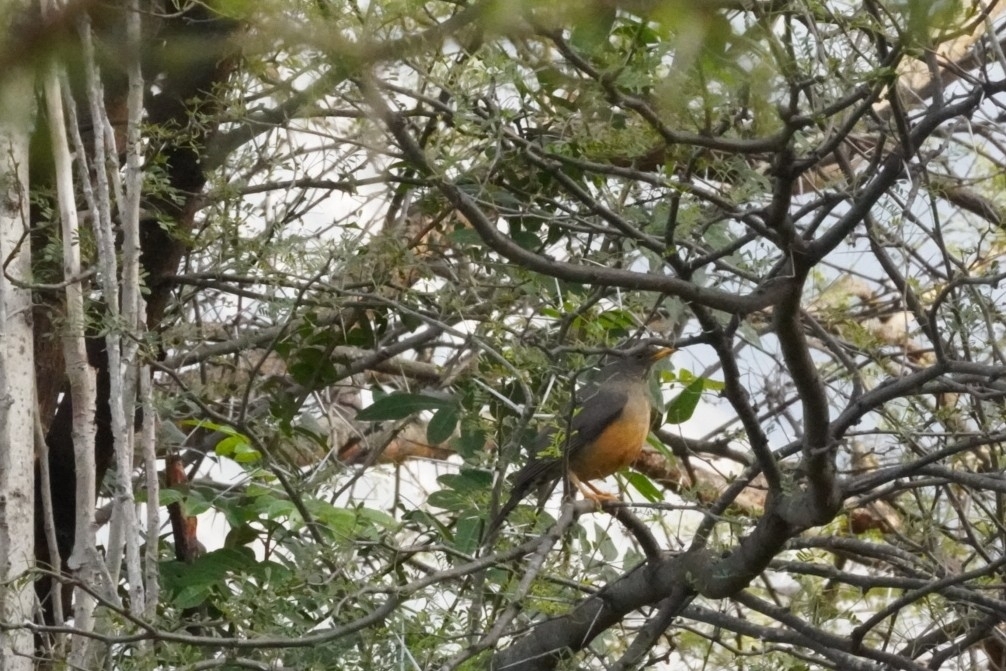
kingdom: Animalia
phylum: Chordata
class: Aves
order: Passeriformes
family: Turdidae
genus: Turdus
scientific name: Turdus olivaceus
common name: Olive thrush
